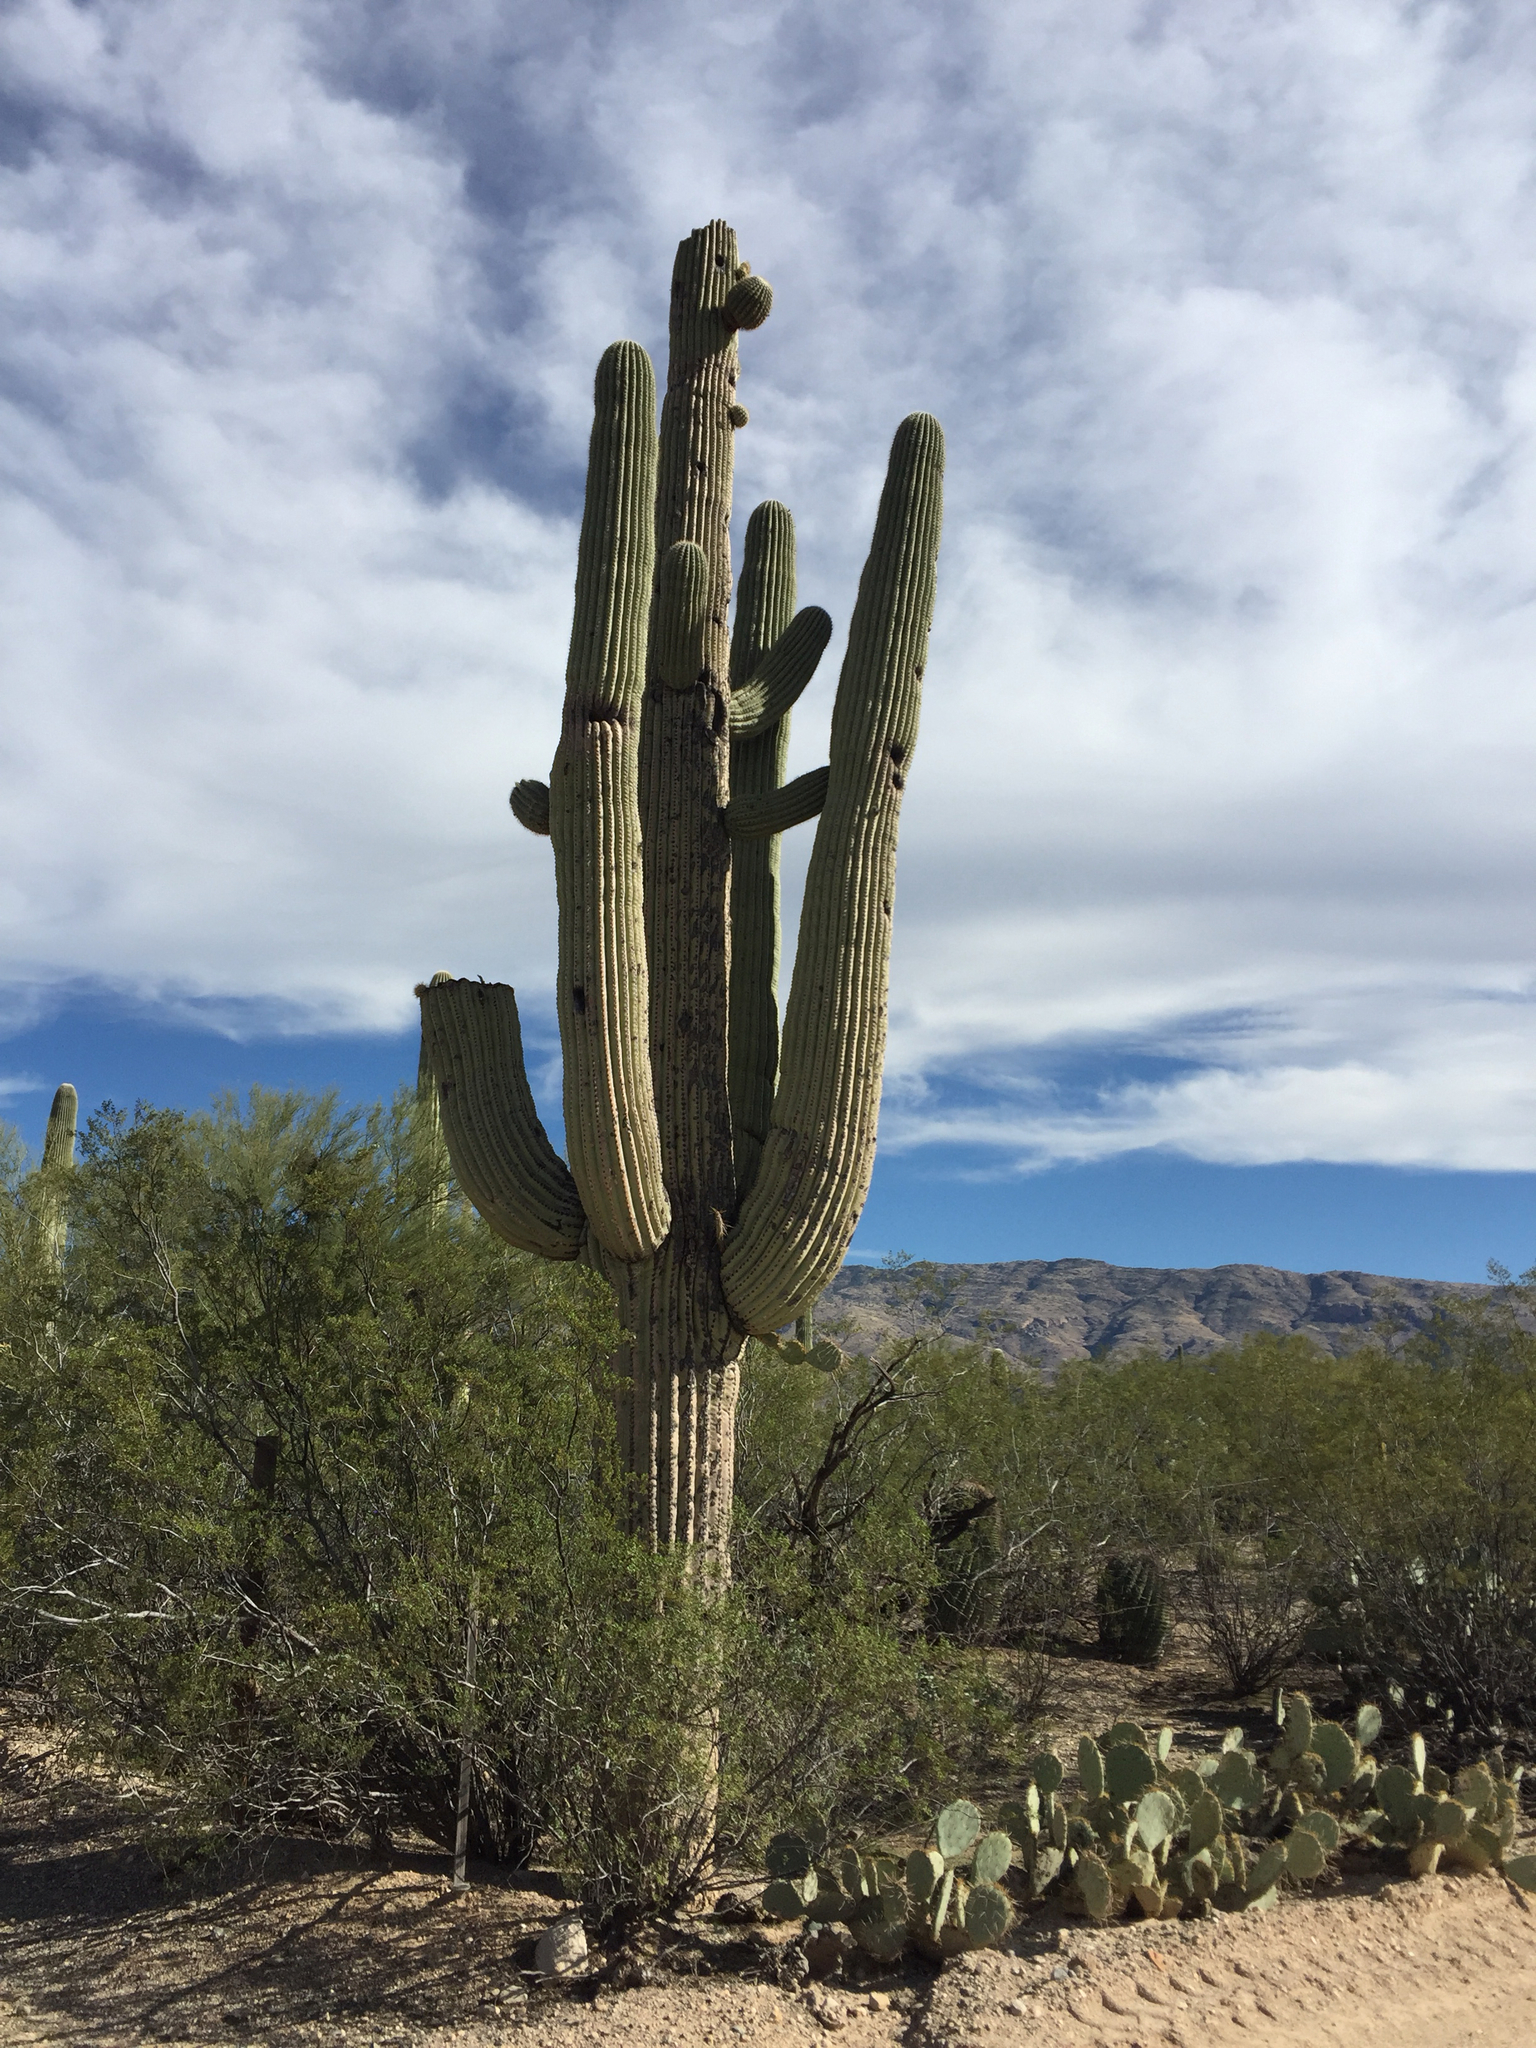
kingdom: Plantae
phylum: Tracheophyta
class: Magnoliopsida
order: Caryophyllales
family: Cactaceae
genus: Carnegiea
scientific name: Carnegiea gigantea
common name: Saguaro
